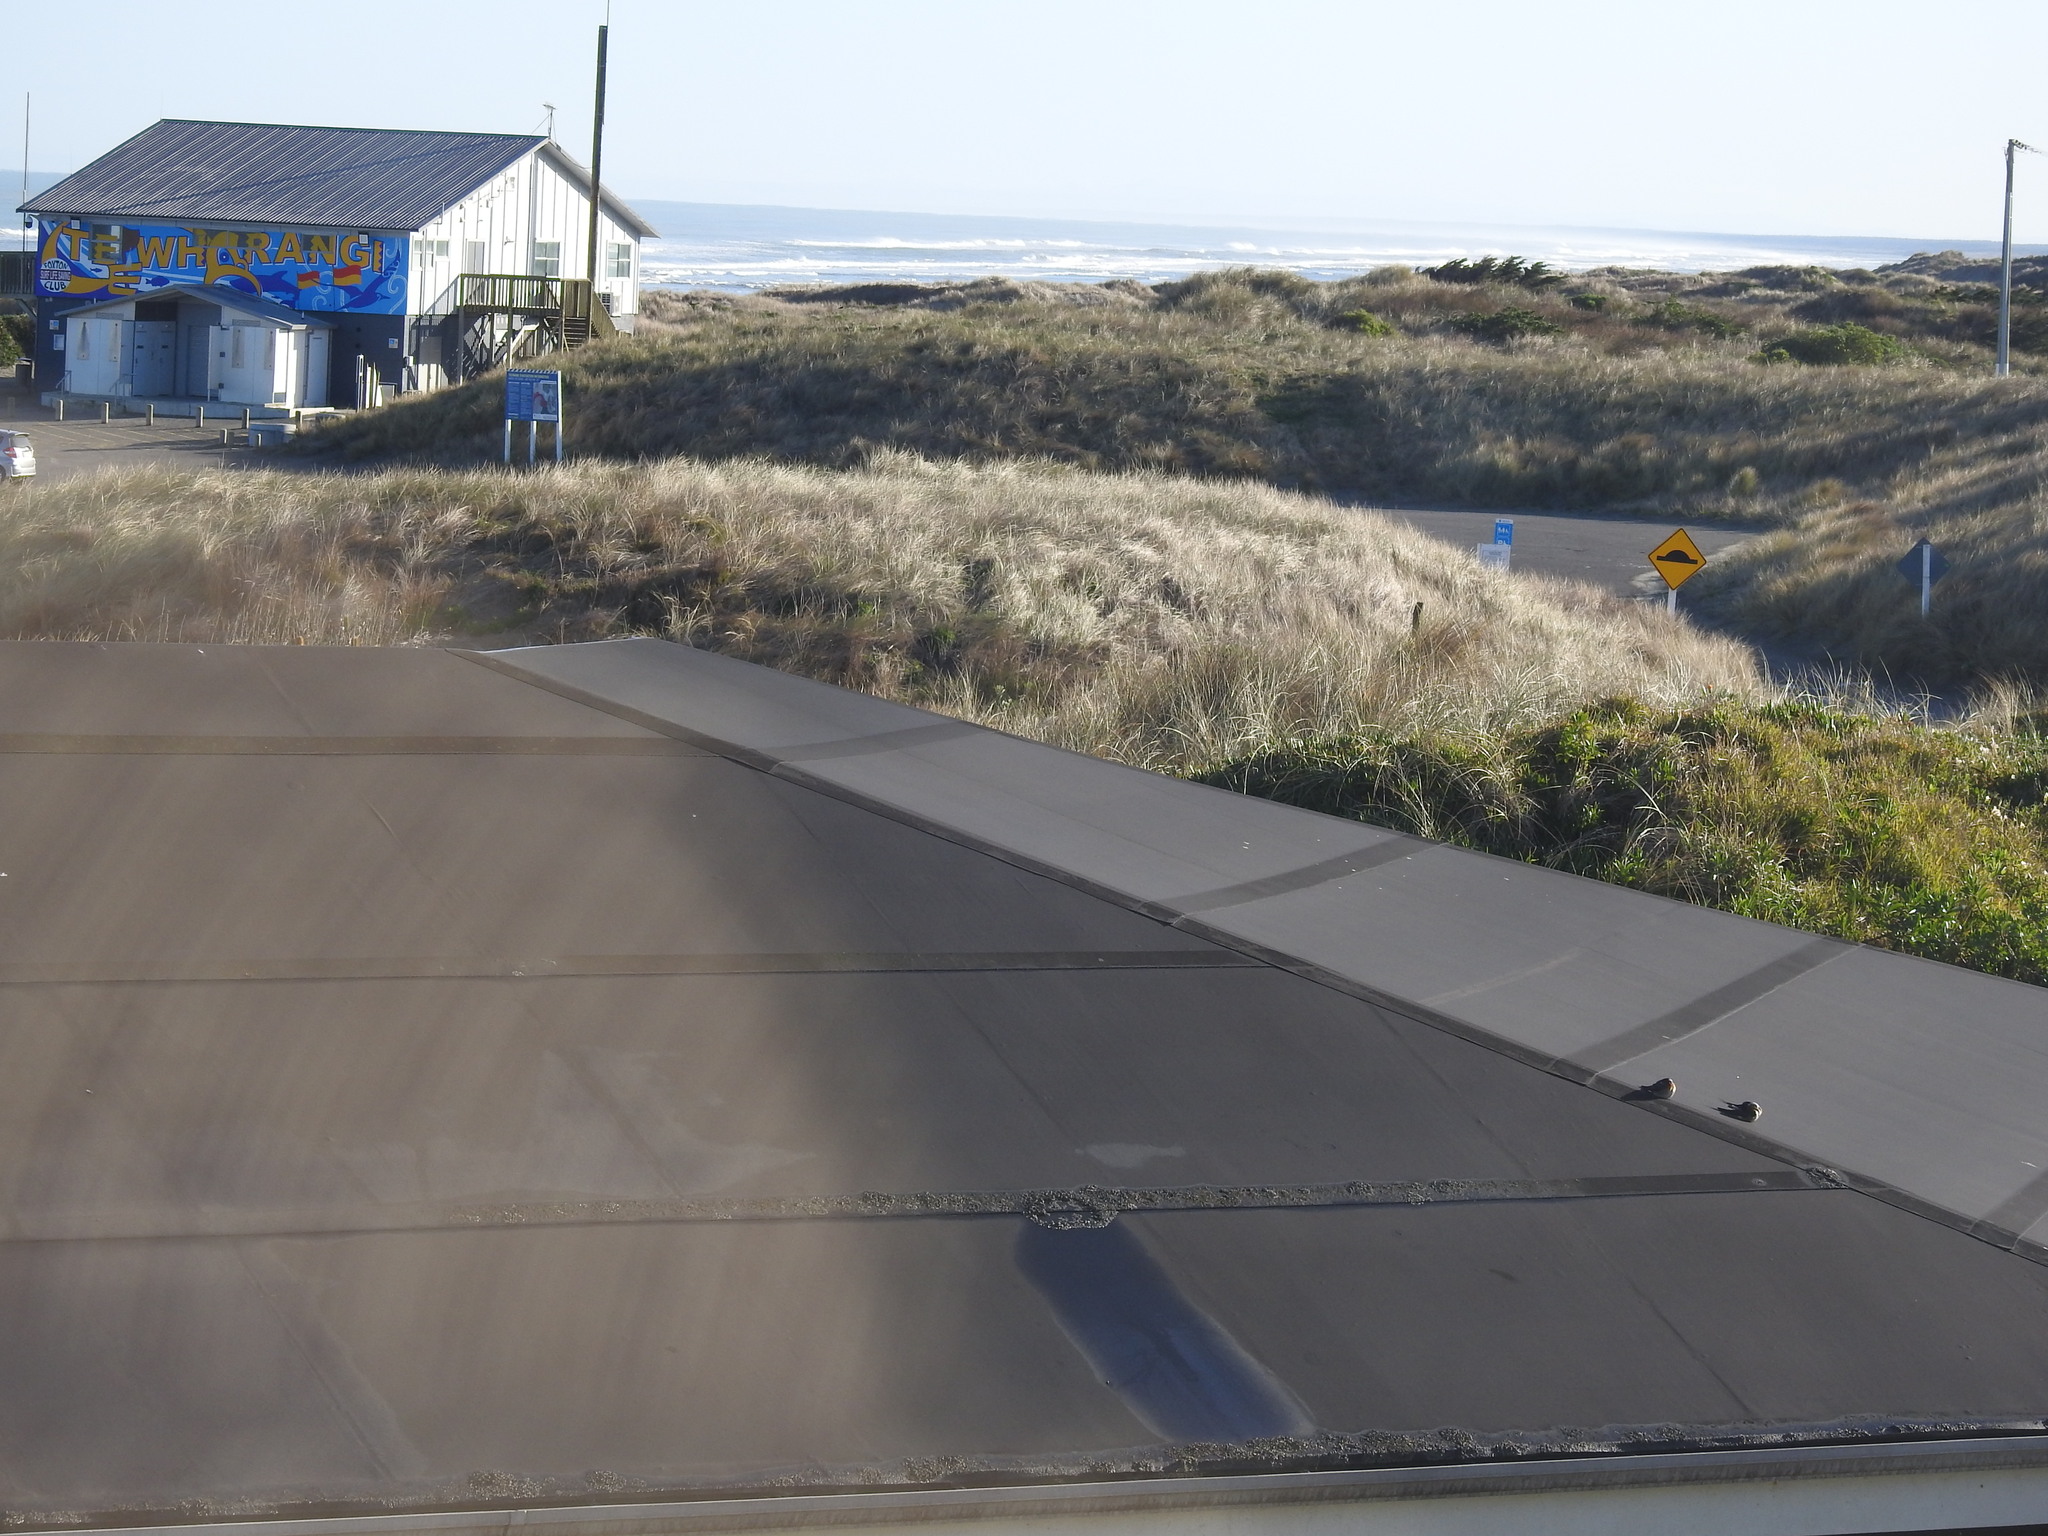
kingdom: Animalia
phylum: Chordata
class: Aves
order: Passeriformes
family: Hirundinidae
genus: Hirundo
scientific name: Hirundo neoxena
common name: Welcome swallow
